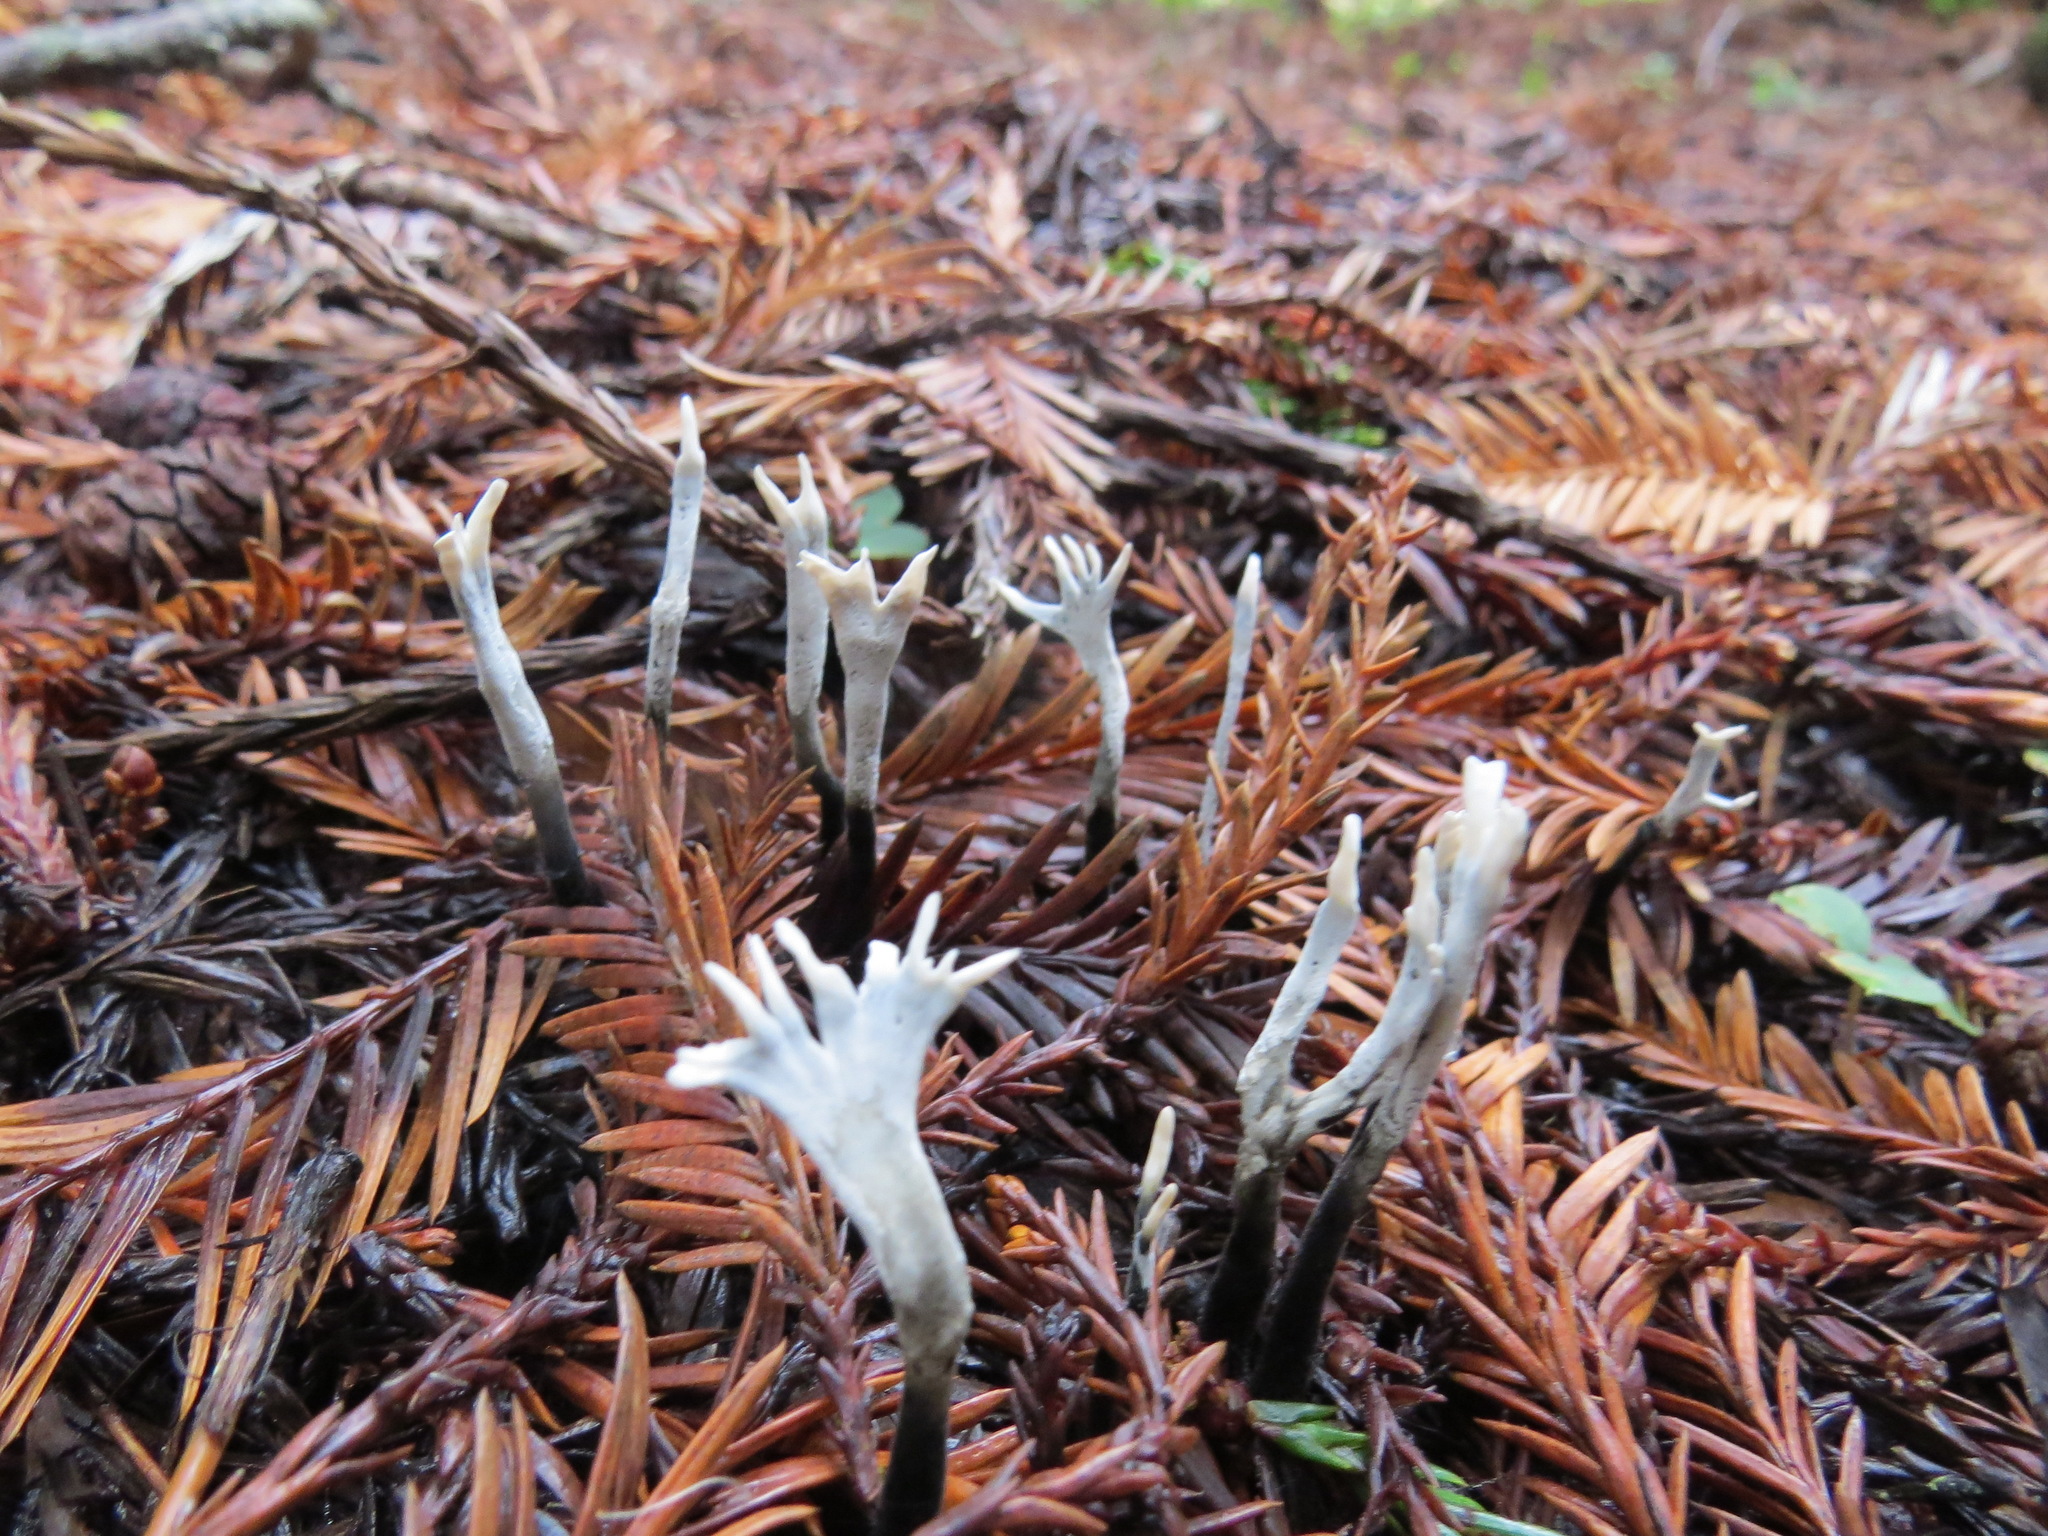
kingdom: Fungi
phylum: Ascomycota
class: Sordariomycetes
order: Xylariales
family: Xylariaceae
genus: Xylaria
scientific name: Xylaria hypoxylon
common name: Candle-snuff fungus
